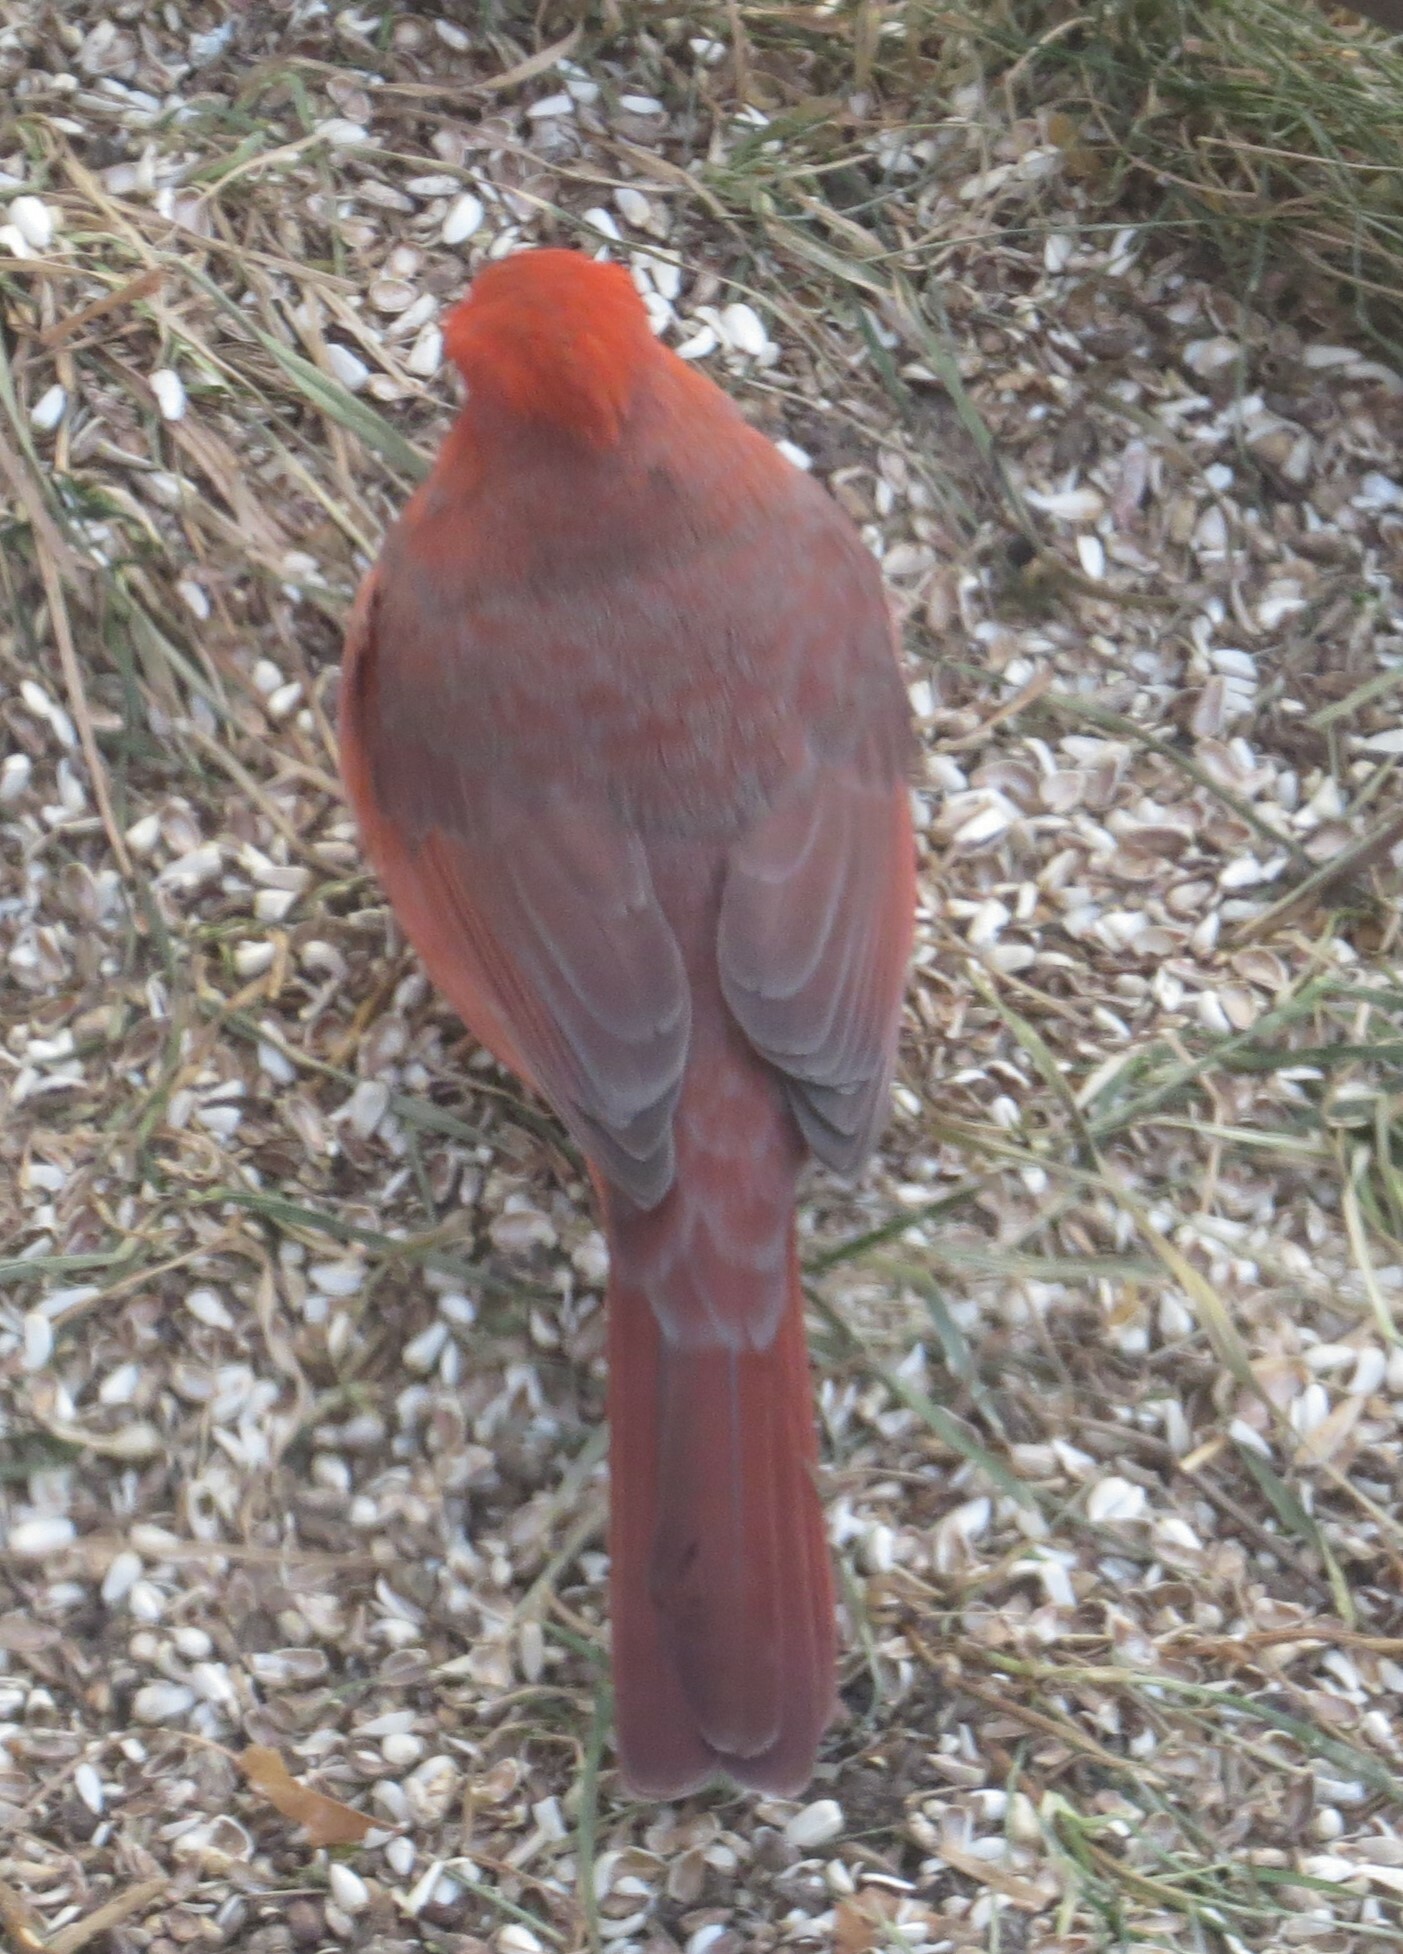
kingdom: Animalia
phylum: Chordata
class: Aves
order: Passeriformes
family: Cardinalidae
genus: Cardinalis
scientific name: Cardinalis cardinalis
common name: Northern cardinal
